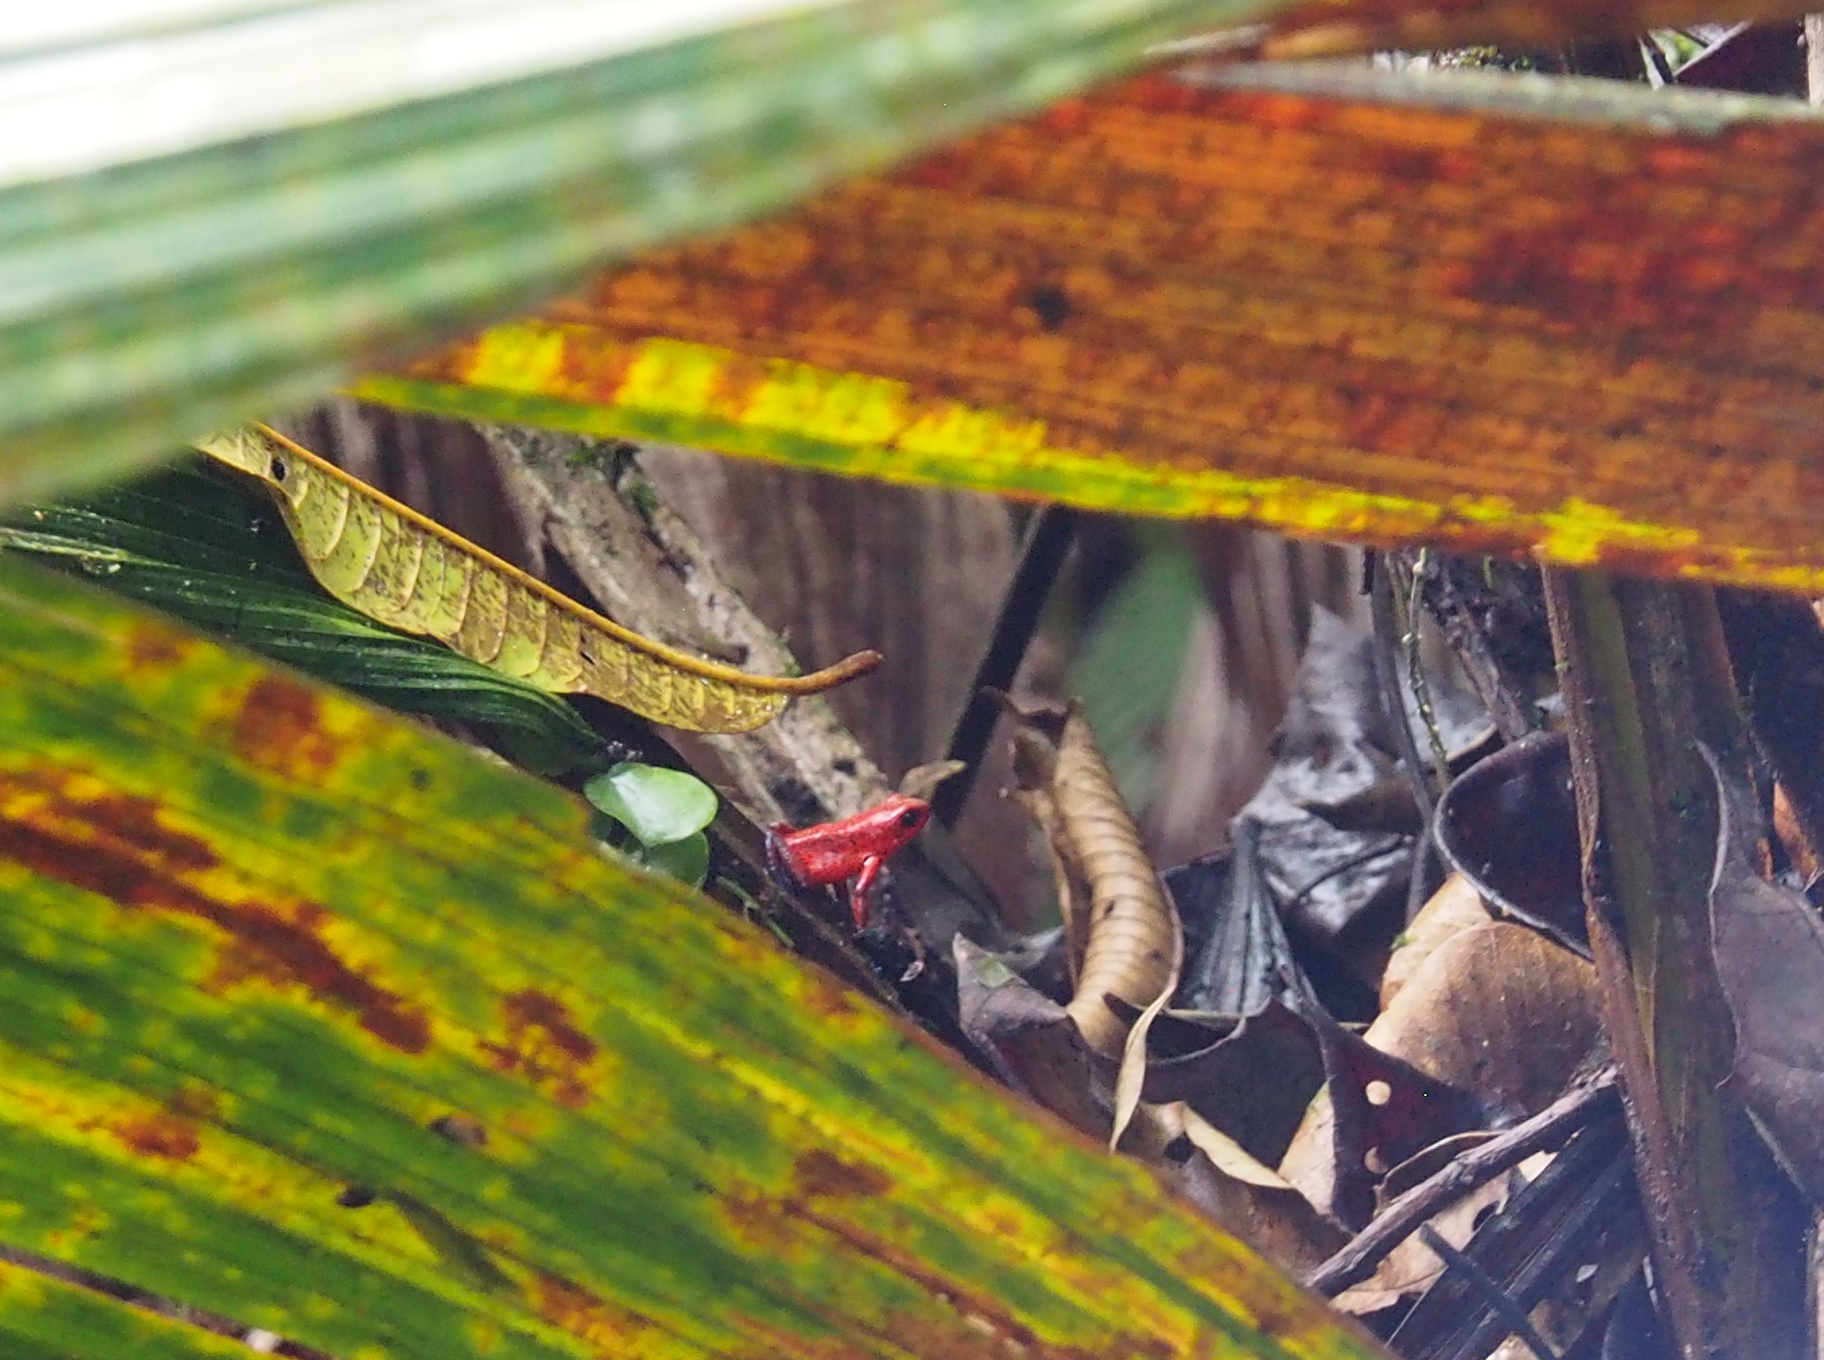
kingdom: Animalia
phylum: Chordata
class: Amphibia
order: Anura
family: Dendrobatidae
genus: Oophaga
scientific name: Oophaga pumilio
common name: Flaming poison frog
